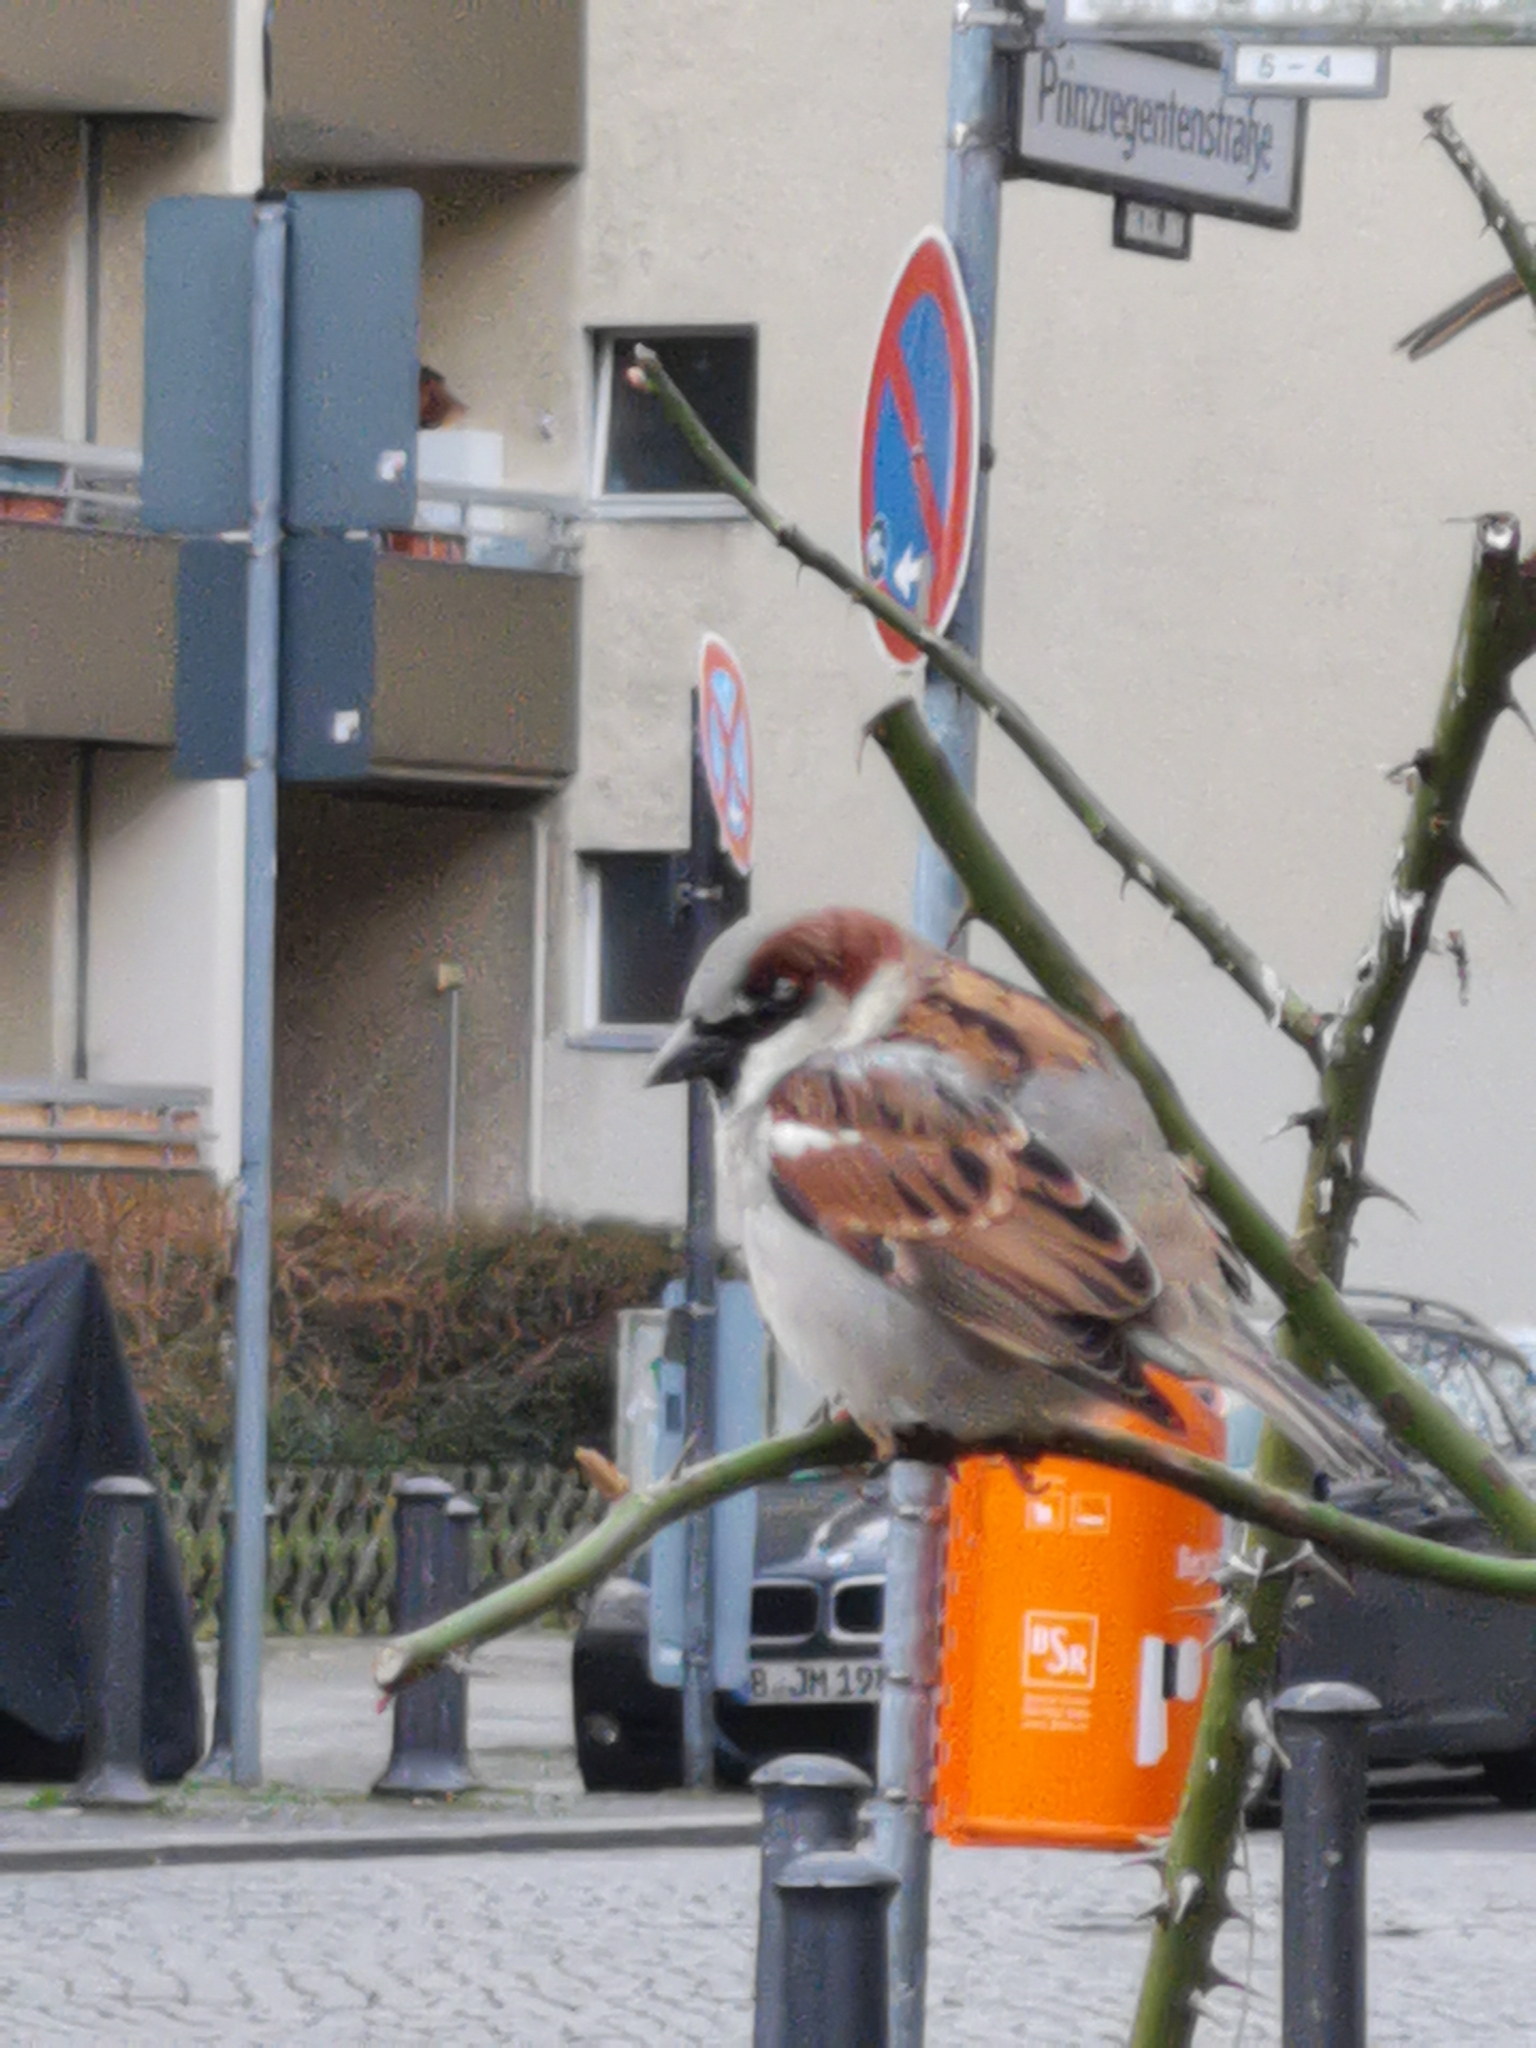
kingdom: Animalia
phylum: Chordata
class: Aves
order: Passeriformes
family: Passeridae
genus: Passer
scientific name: Passer domesticus
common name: House sparrow
